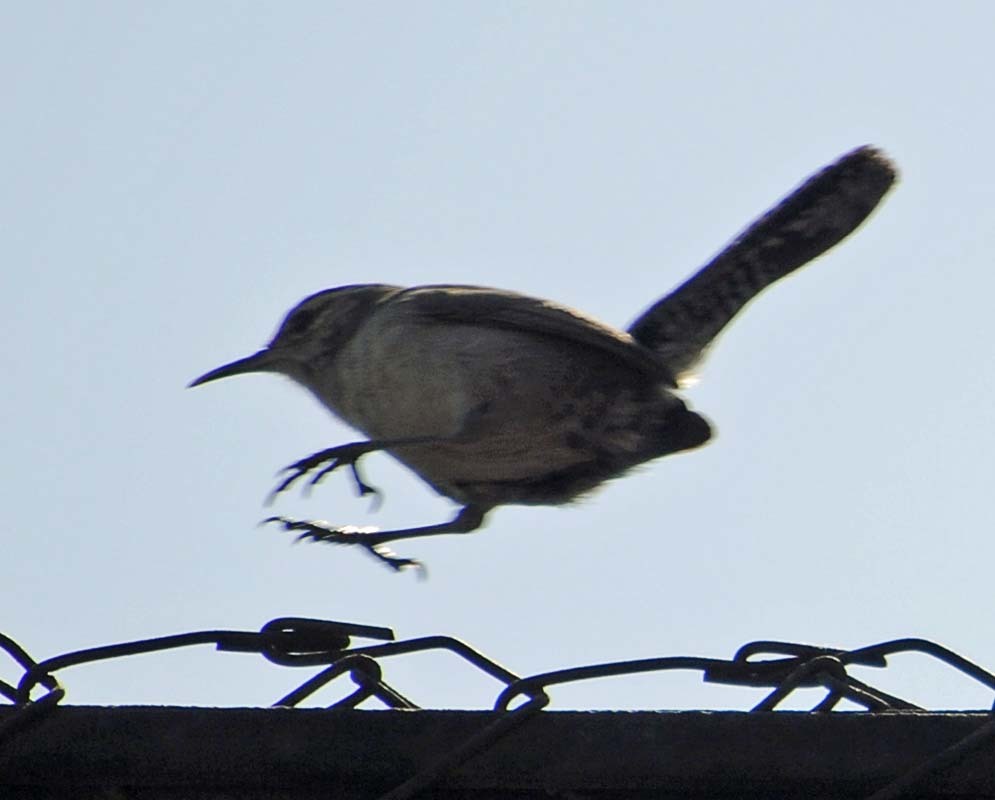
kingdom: Animalia
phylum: Chordata
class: Aves
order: Passeriformes
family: Troglodytidae
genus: Thryomanes
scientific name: Thryomanes bewickii
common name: Bewick's wren
